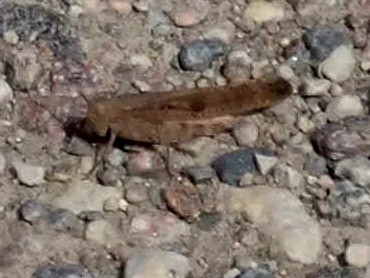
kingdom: Animalia
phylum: Arthropoda
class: Insecta
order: Orthoptera
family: Acrididae
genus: Dissosteira
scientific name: Dissosteira carolina
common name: Carolina grasshopper
